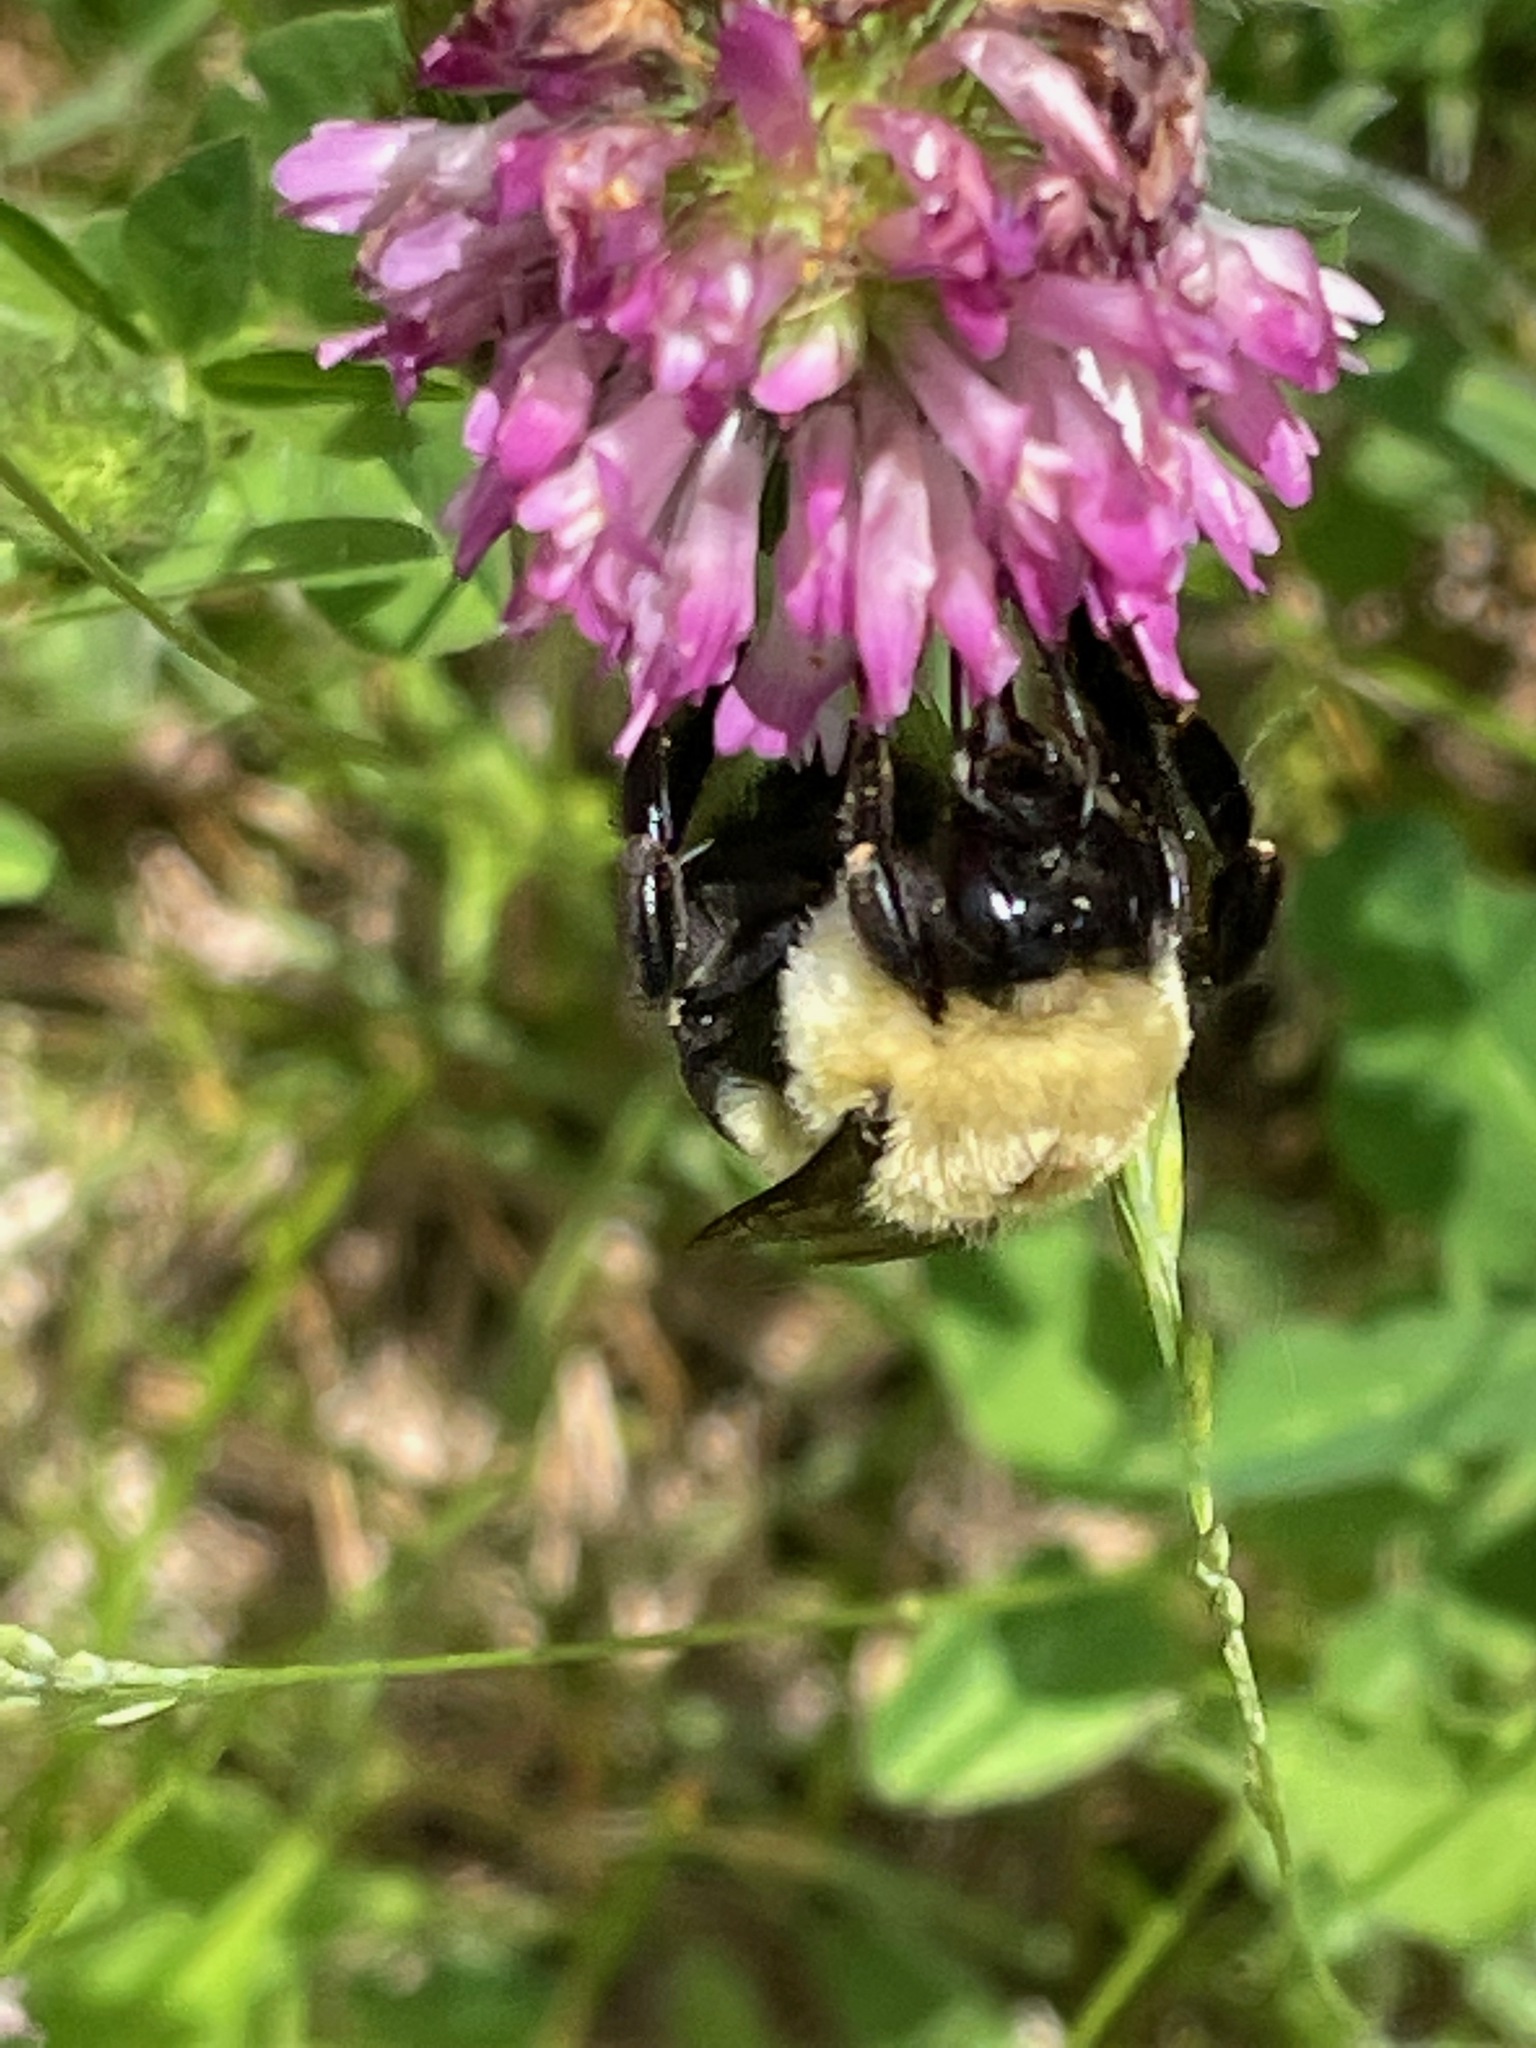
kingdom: Animalia
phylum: Arthropoda
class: Insecta
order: Hymenoptera
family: Apidae
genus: Bombus
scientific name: Bombus impatiens
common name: Common eastern bumble bee
